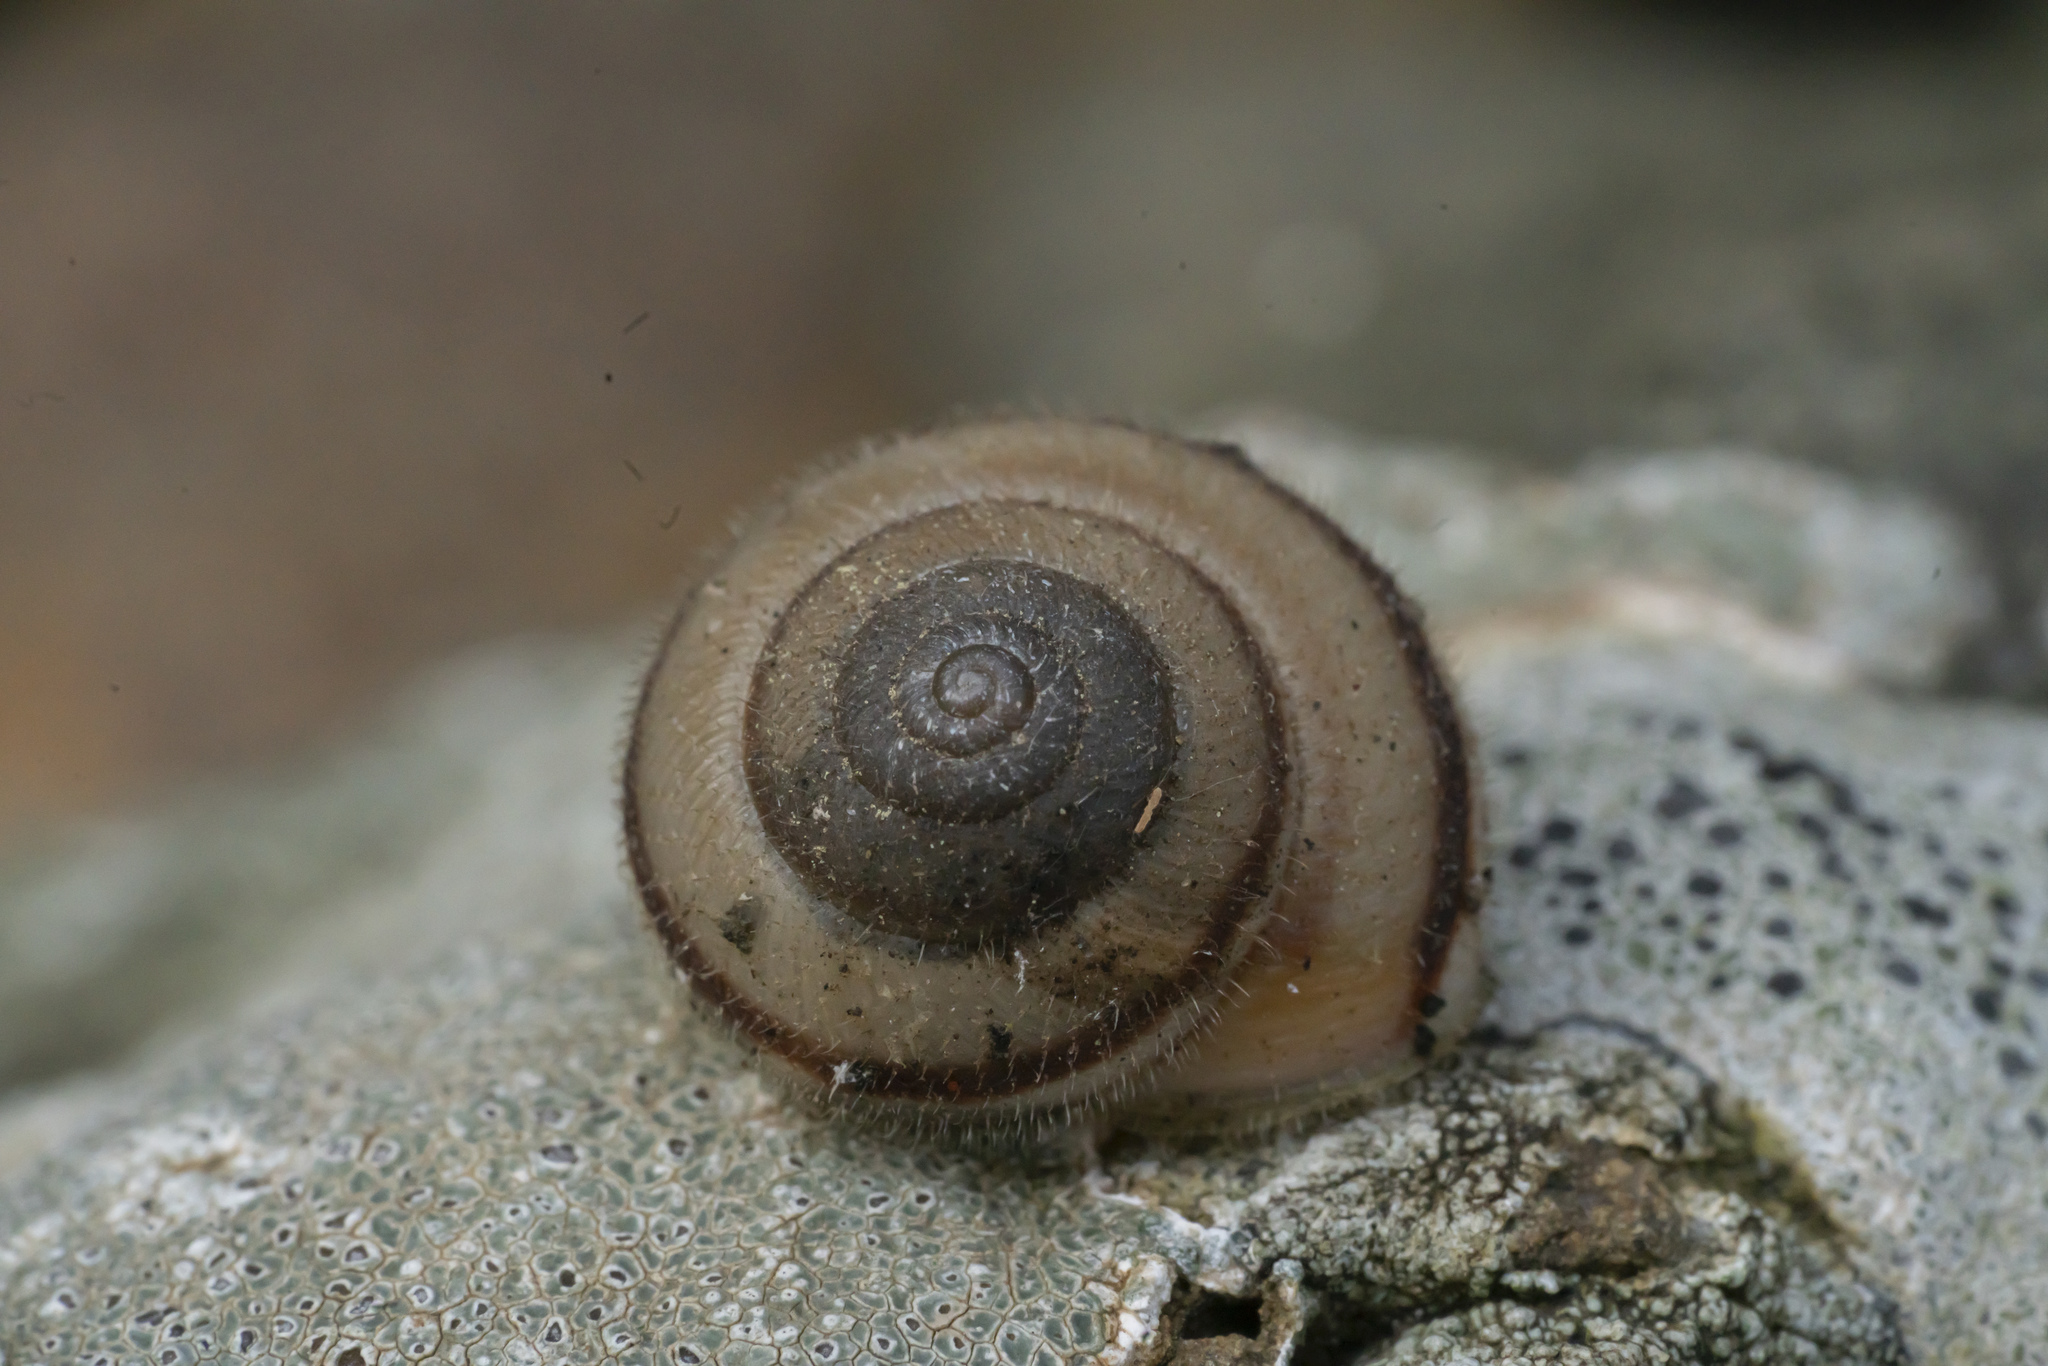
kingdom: Animalia
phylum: Mollusca
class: Gastropoda
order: Stylommatophora
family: Hygromiidae
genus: Metafruticicola
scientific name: Metafruticicola pellita
